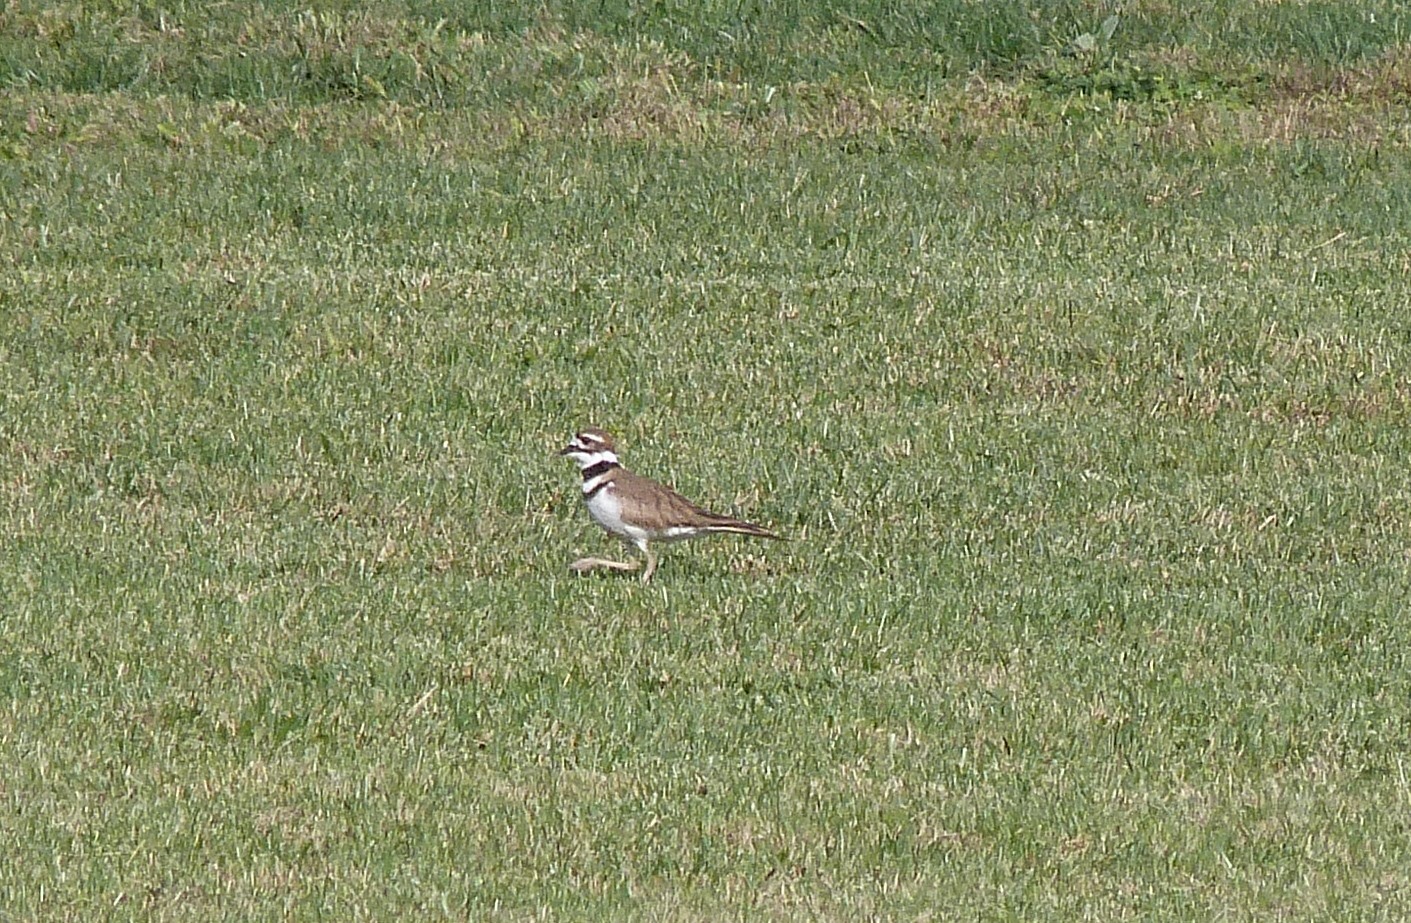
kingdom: Animalia
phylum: Chordata
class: Aves
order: Charadriiformes
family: Charadriidae
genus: Charadrius
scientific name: Charadrius vociferus
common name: Killdeer
